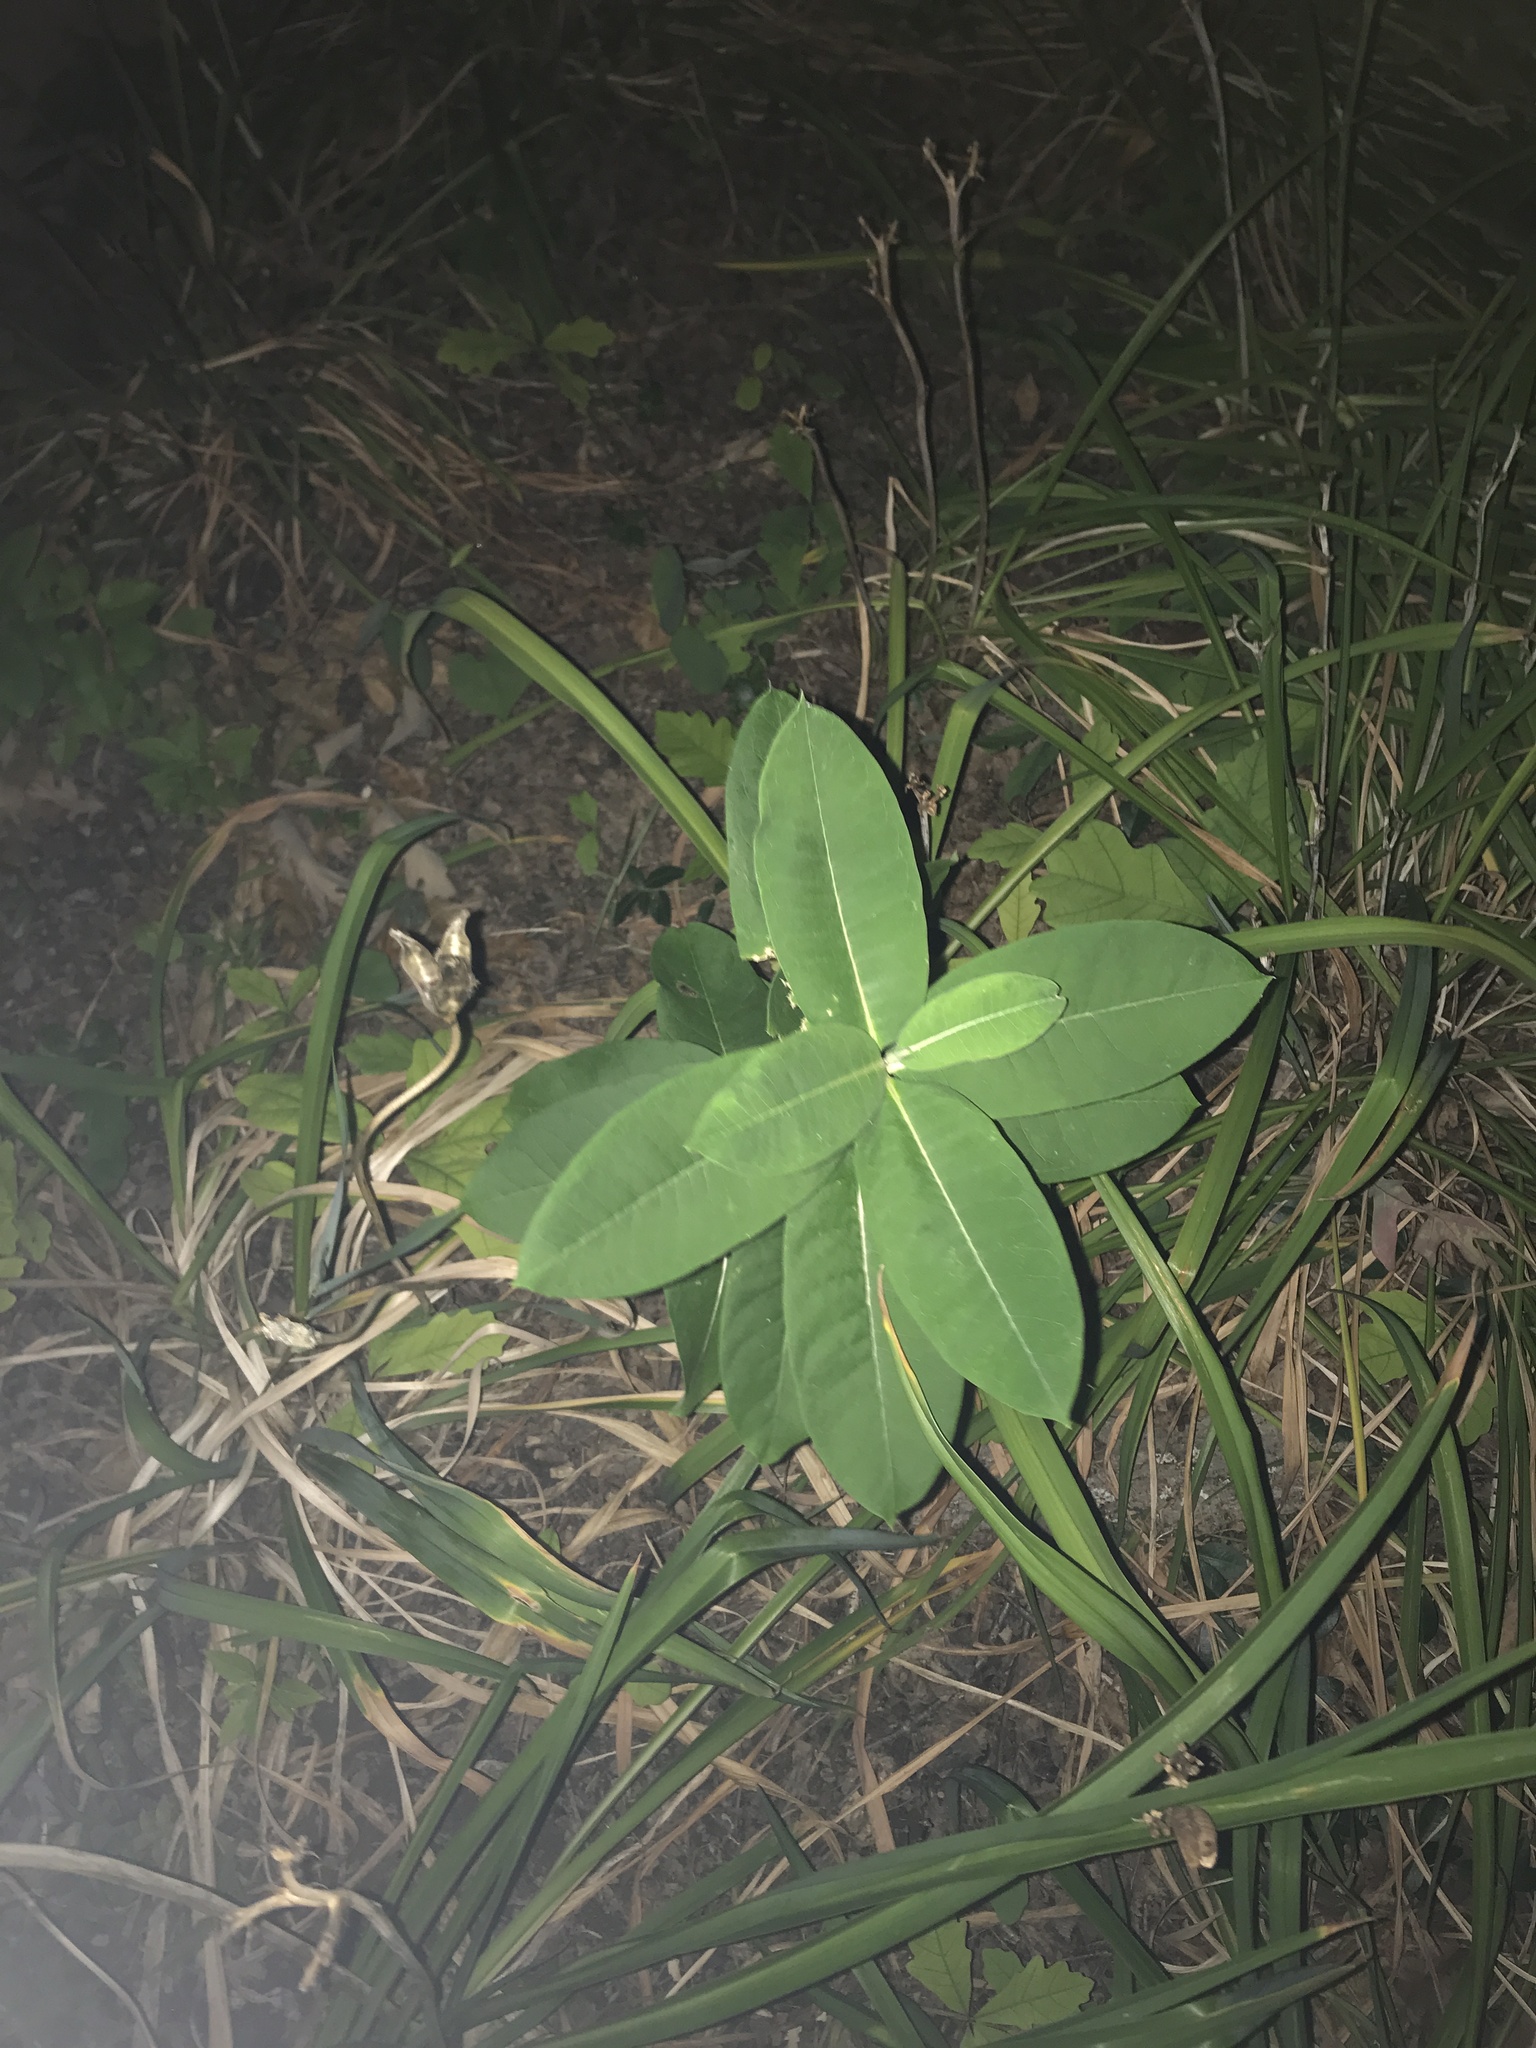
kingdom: Plantae
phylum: Tracheophyta
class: Magnoliopsida
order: Gentianales
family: Apocynaceae
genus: Asclepias
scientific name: Asclepias syriaca
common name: Common milkweed
